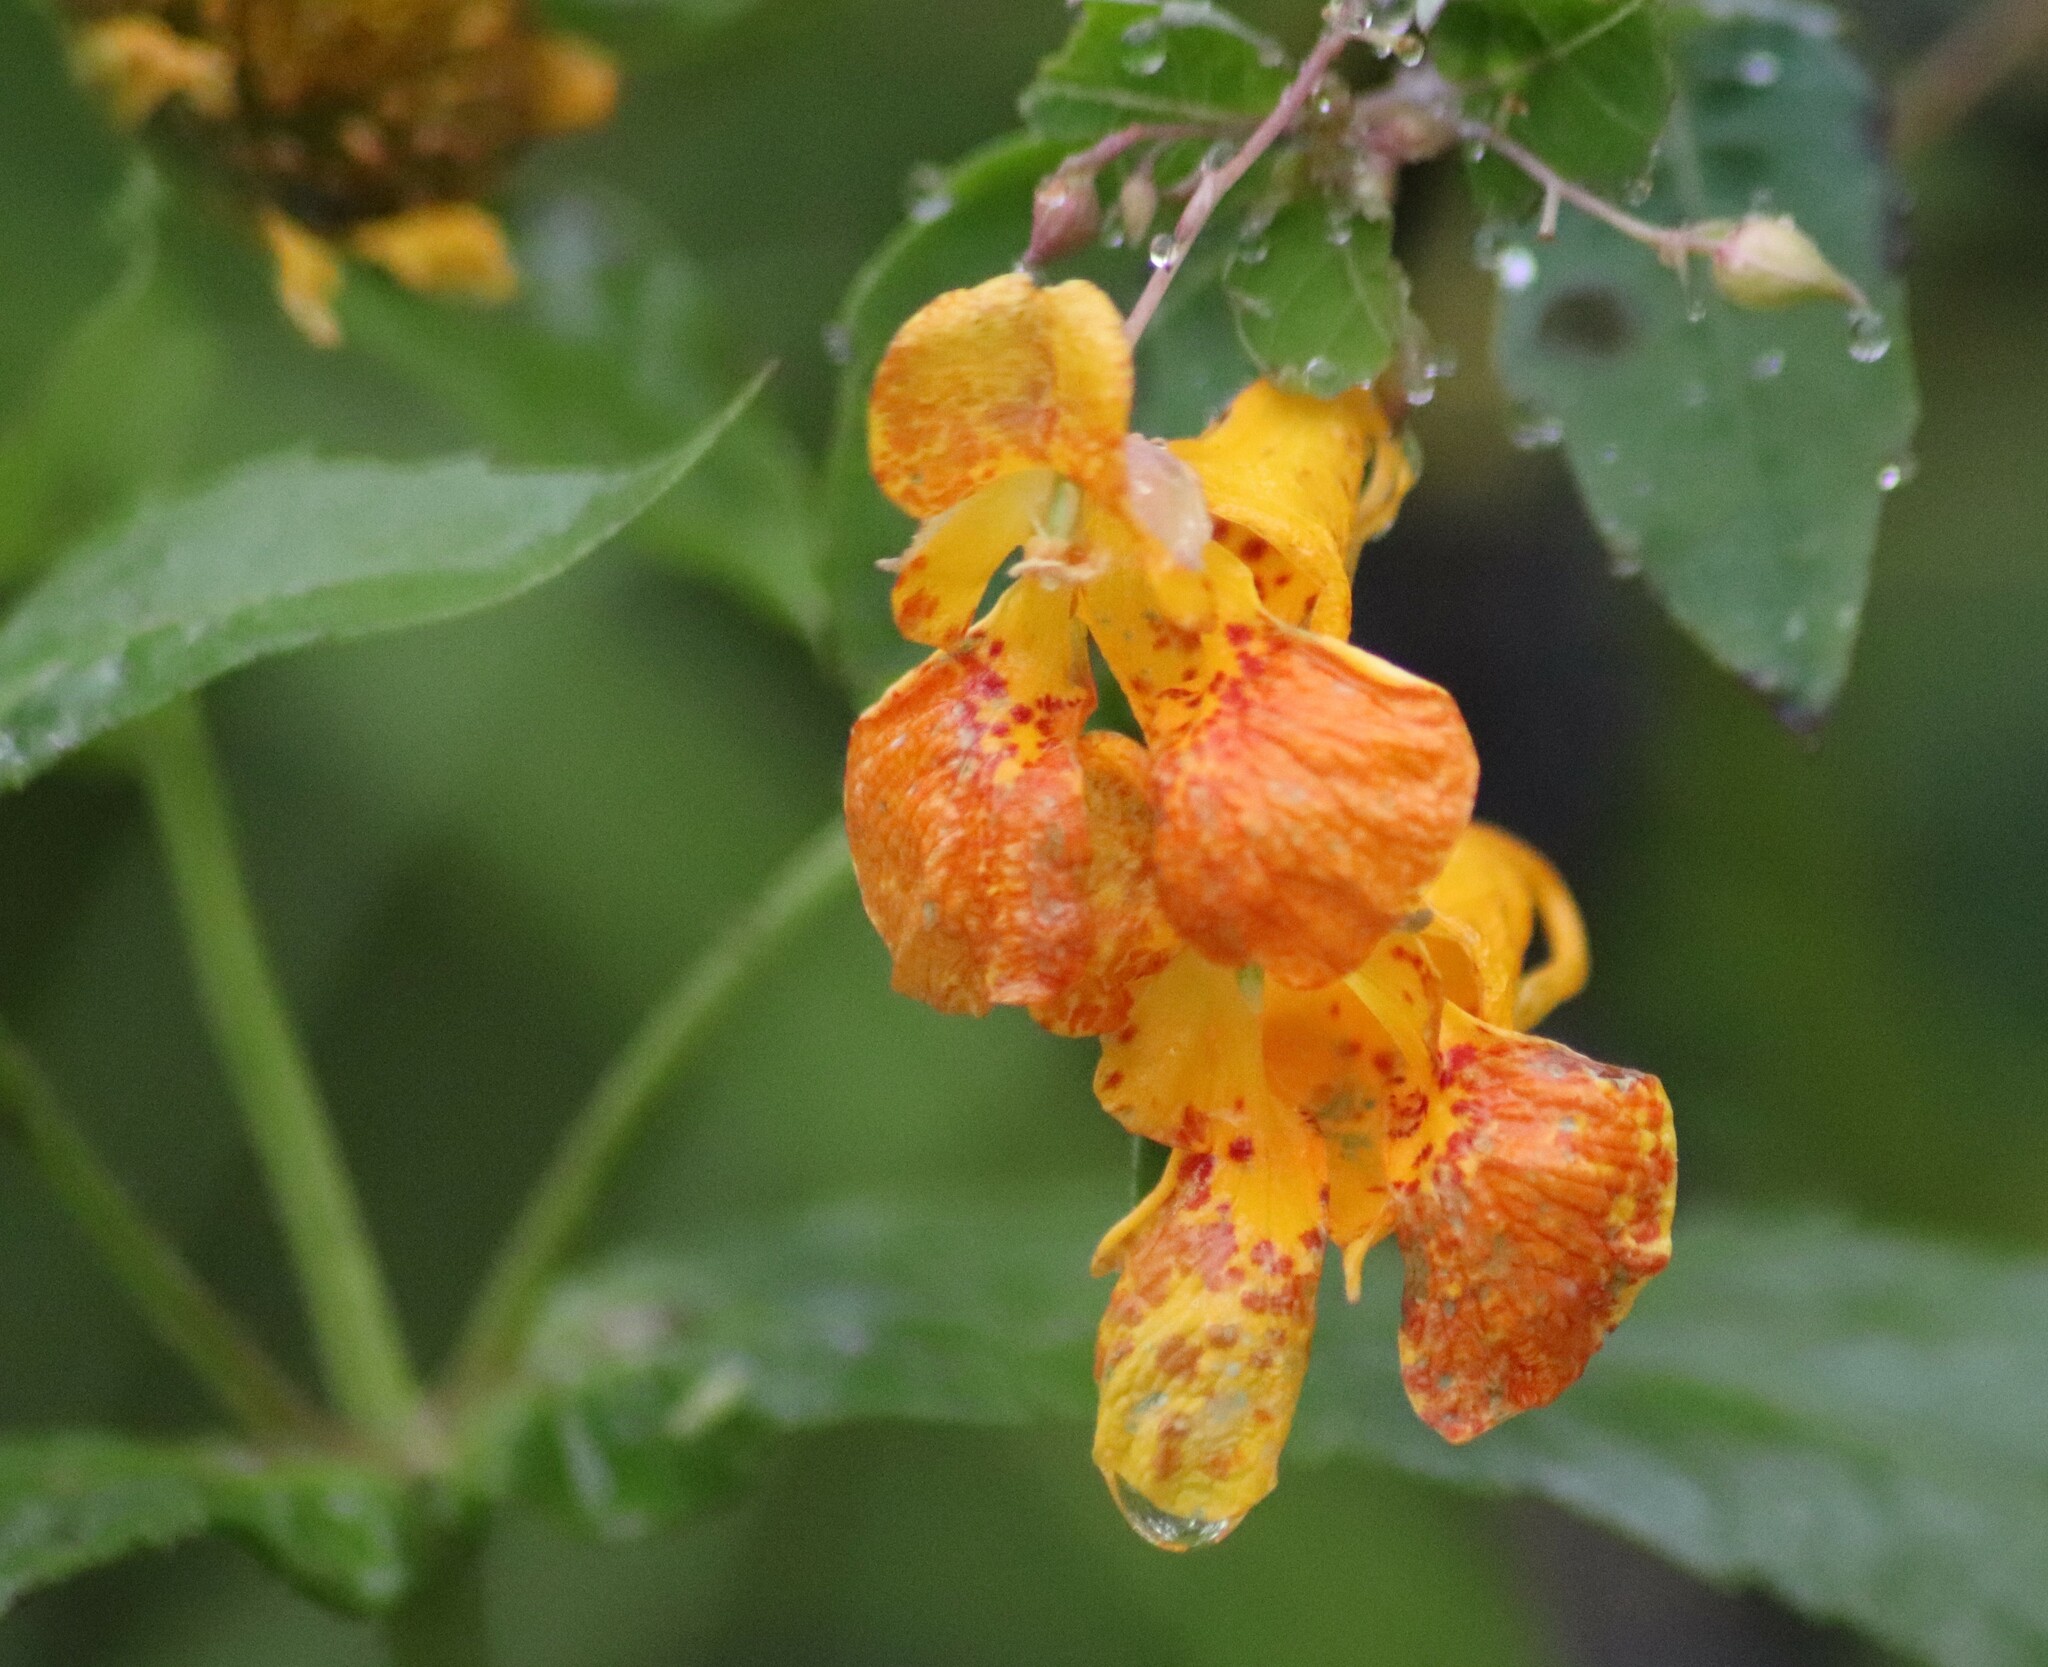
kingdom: Plantae
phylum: Tracheophyta
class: Magnoliopsida
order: Ericales
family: Balsaminaceae
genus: Impatiens
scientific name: Impatiens capensis
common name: Orange balsam
